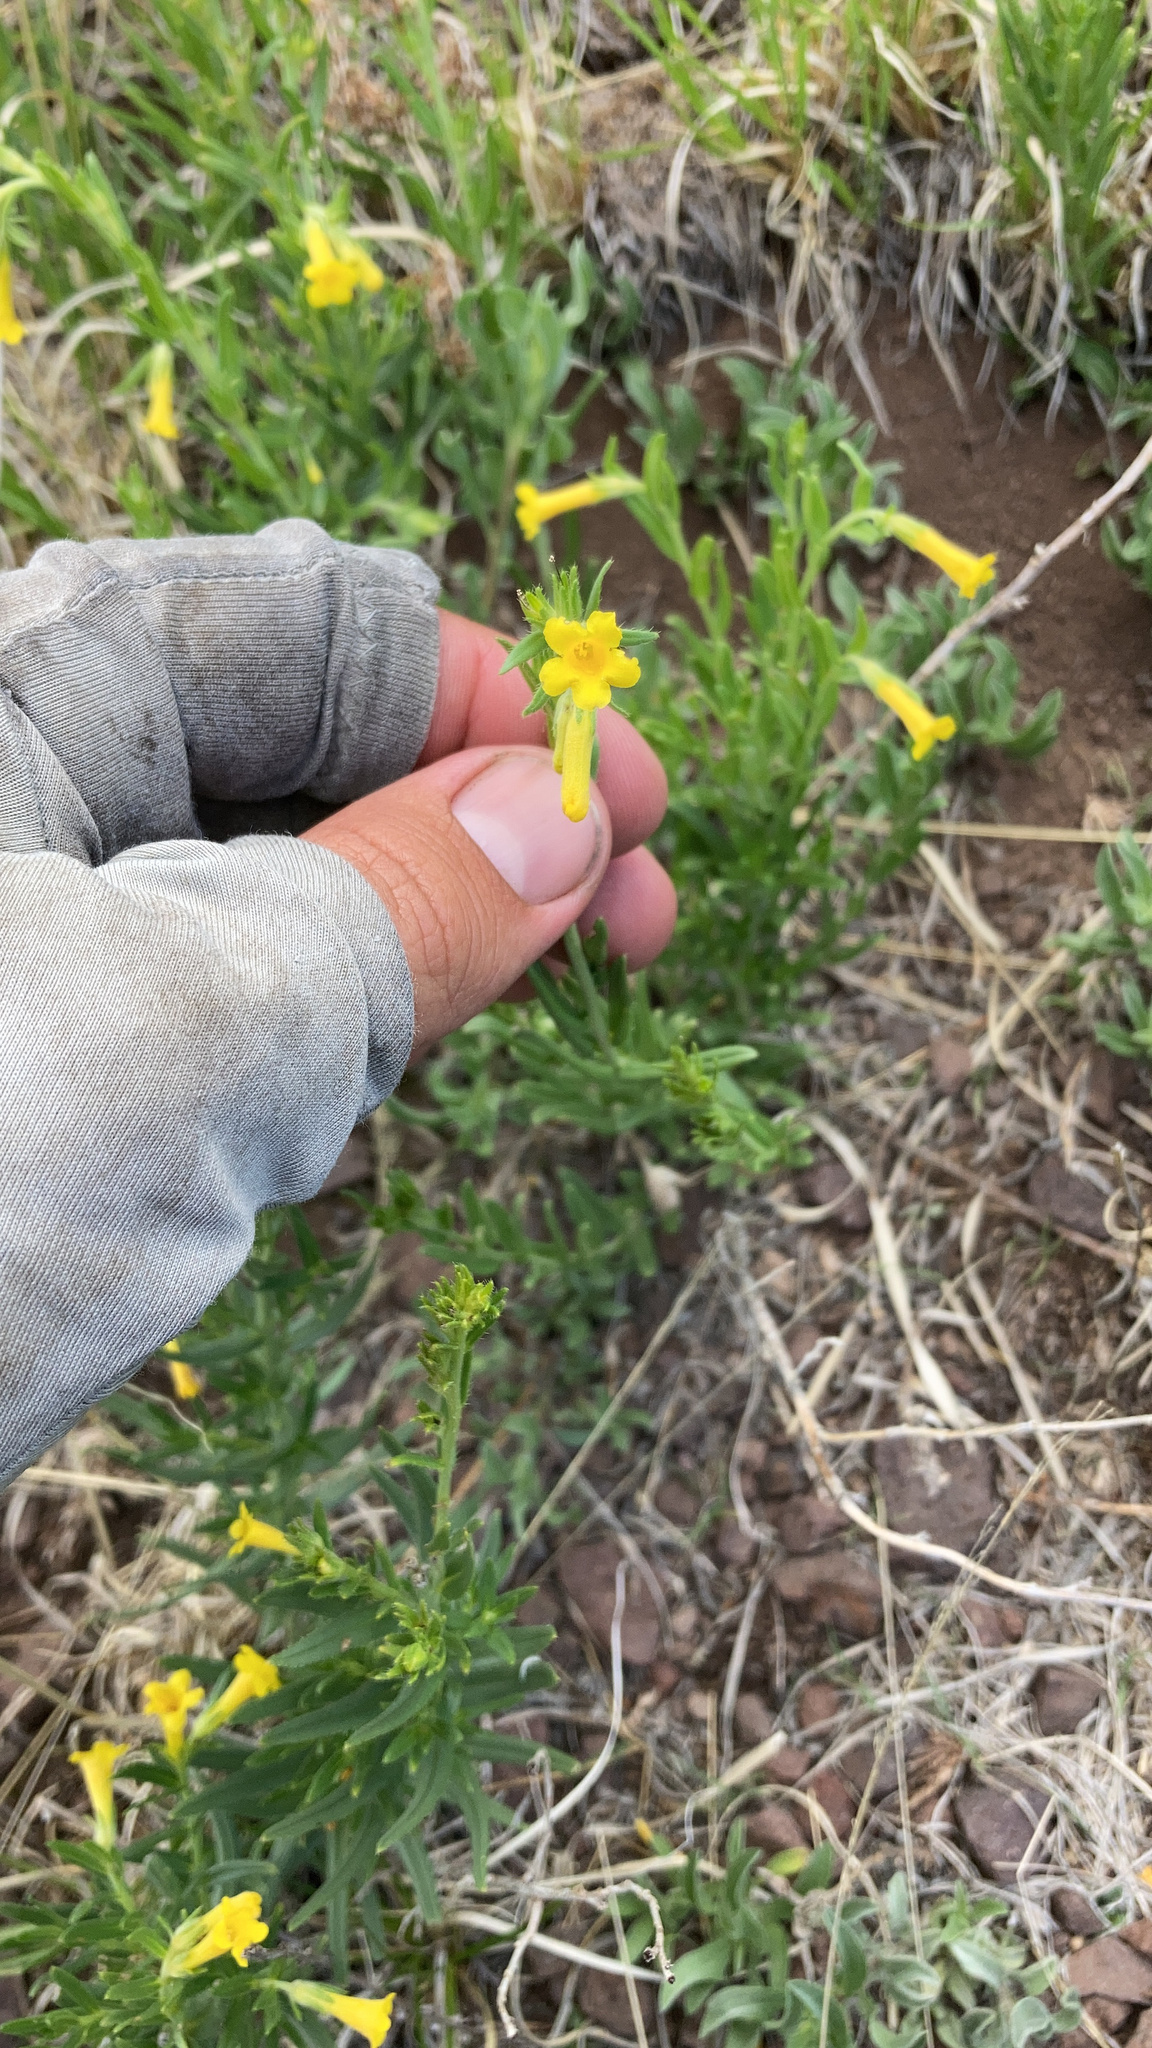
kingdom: Plantae
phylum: Tracheophyta
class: Magnoliopsida
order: Boraginales
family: Boraginaceae
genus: Lithospermum
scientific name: Lithospermum multiflorum
